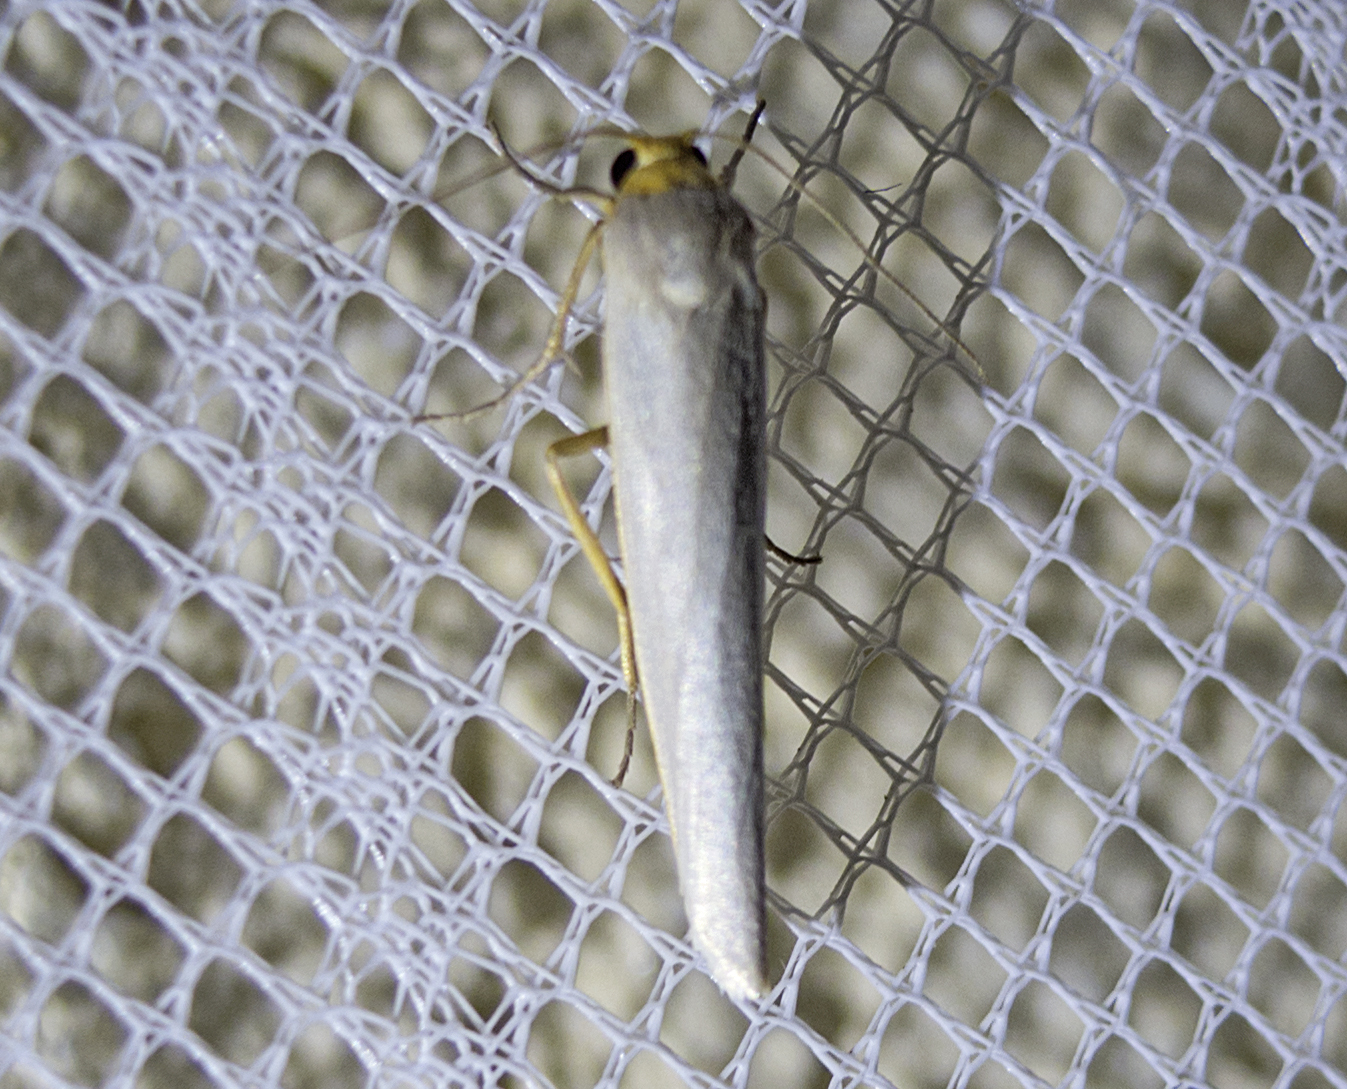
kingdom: Animalia
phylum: Arthropoda
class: Insecta
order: Lepidoptera
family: Erebidae
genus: Eilema
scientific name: Eilema caniola
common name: Hoary footman
